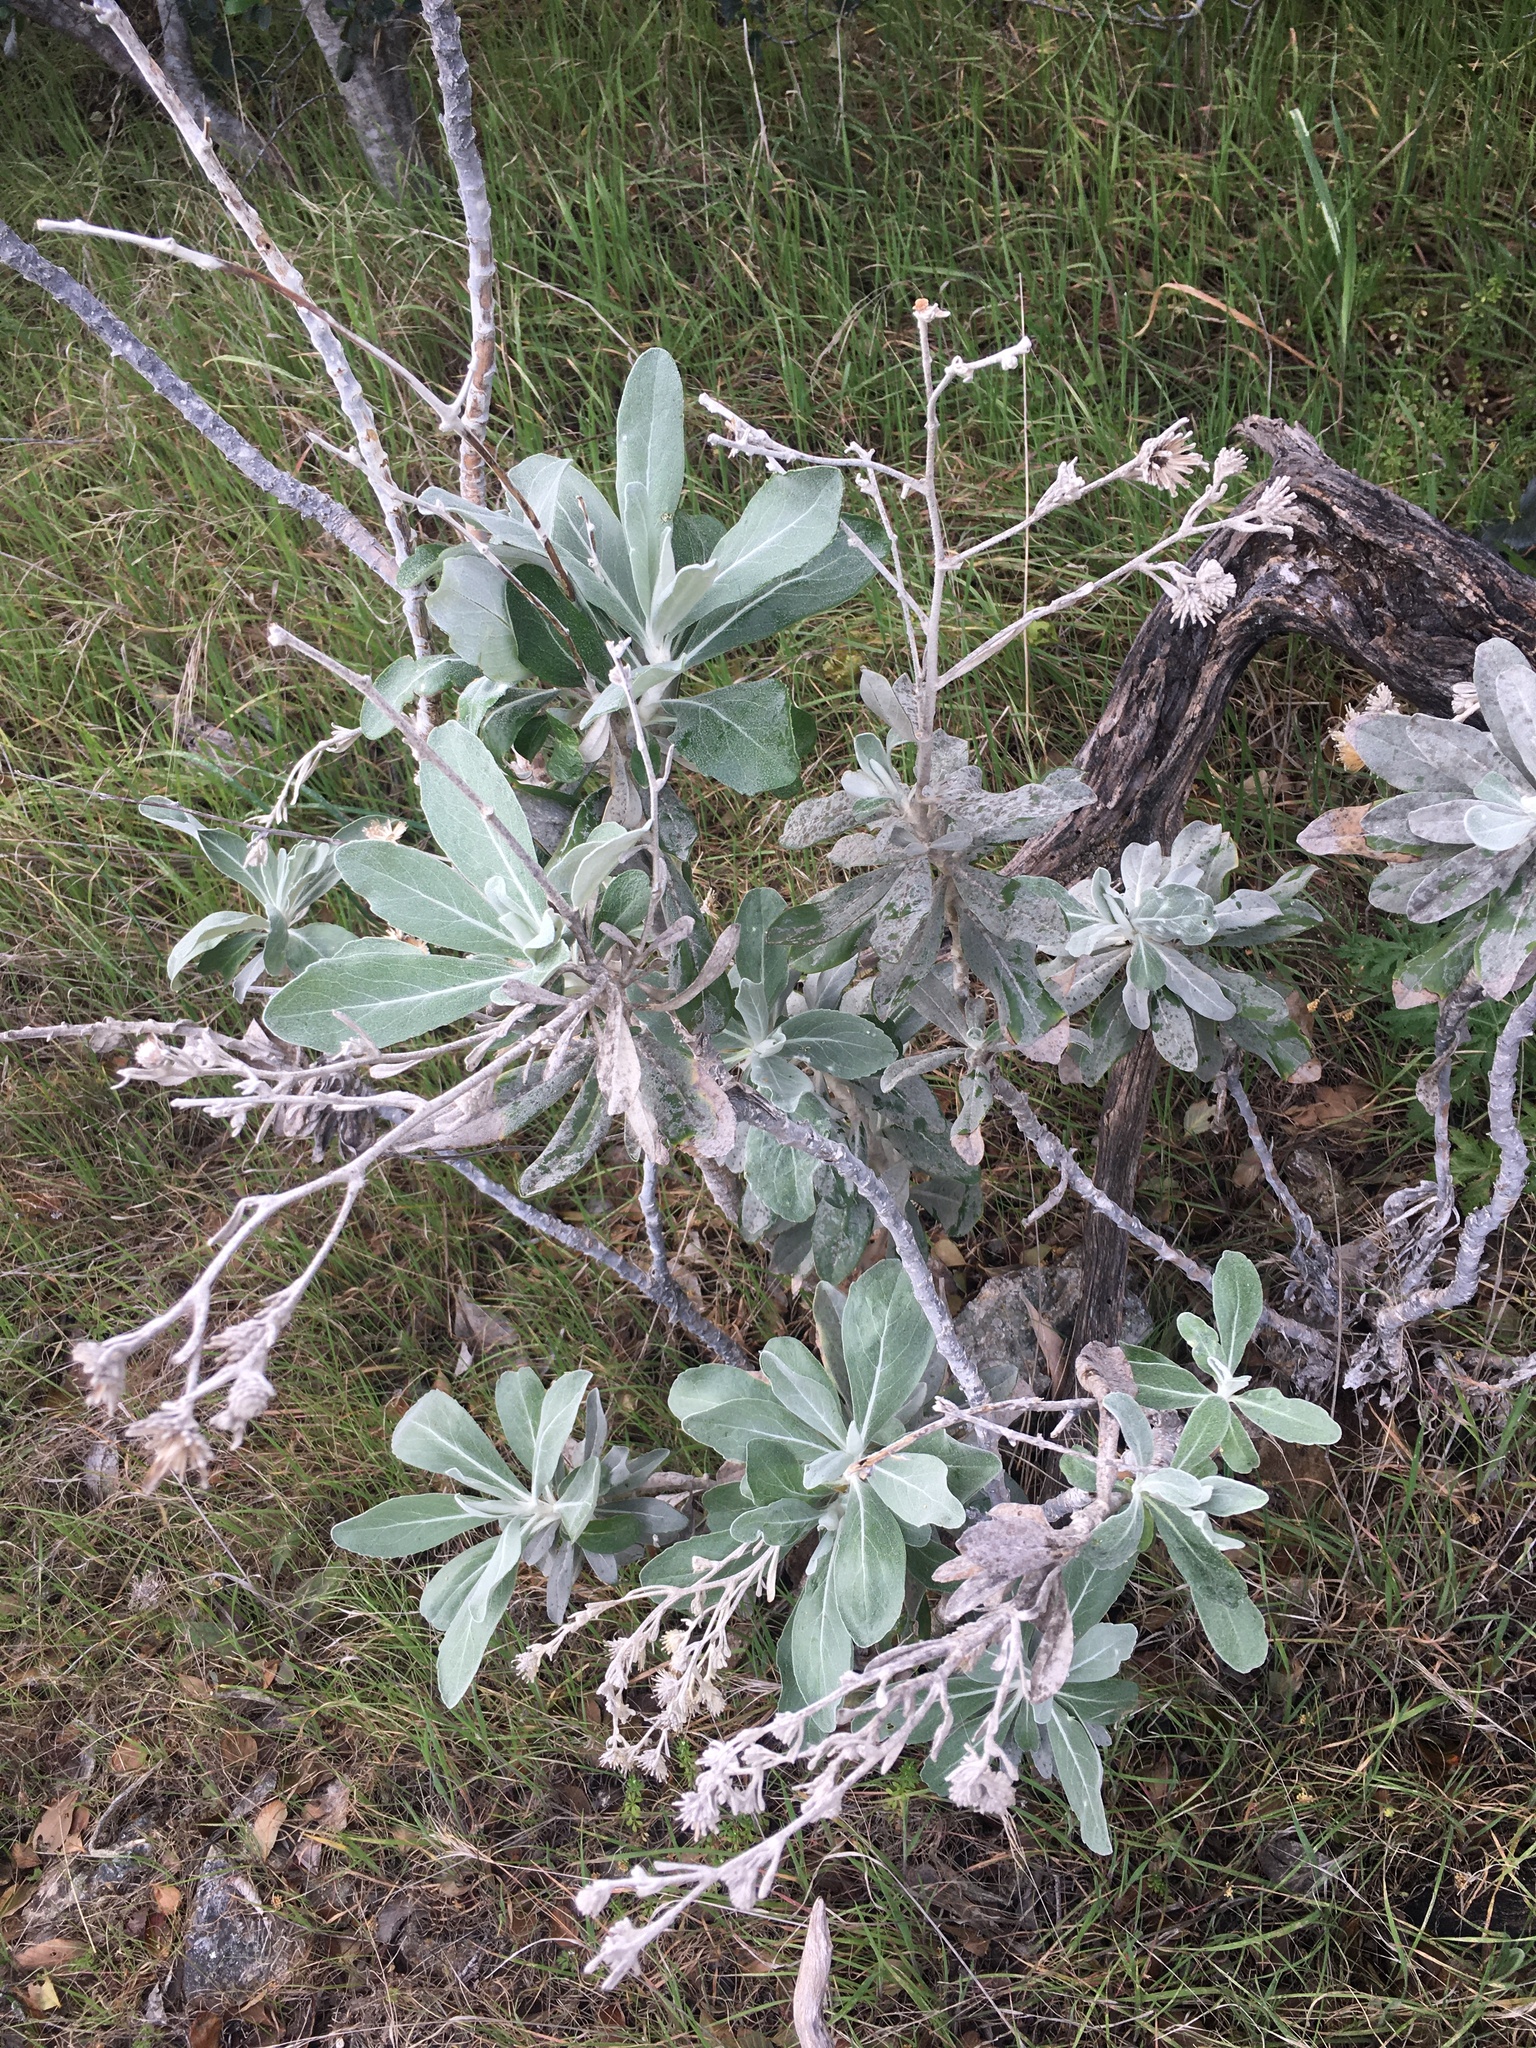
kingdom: Plantae
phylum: Tracheophyta
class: Magnoliopsida
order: Asterales
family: Asteraceae
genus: Hazardia
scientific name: Hazardia detonsa
